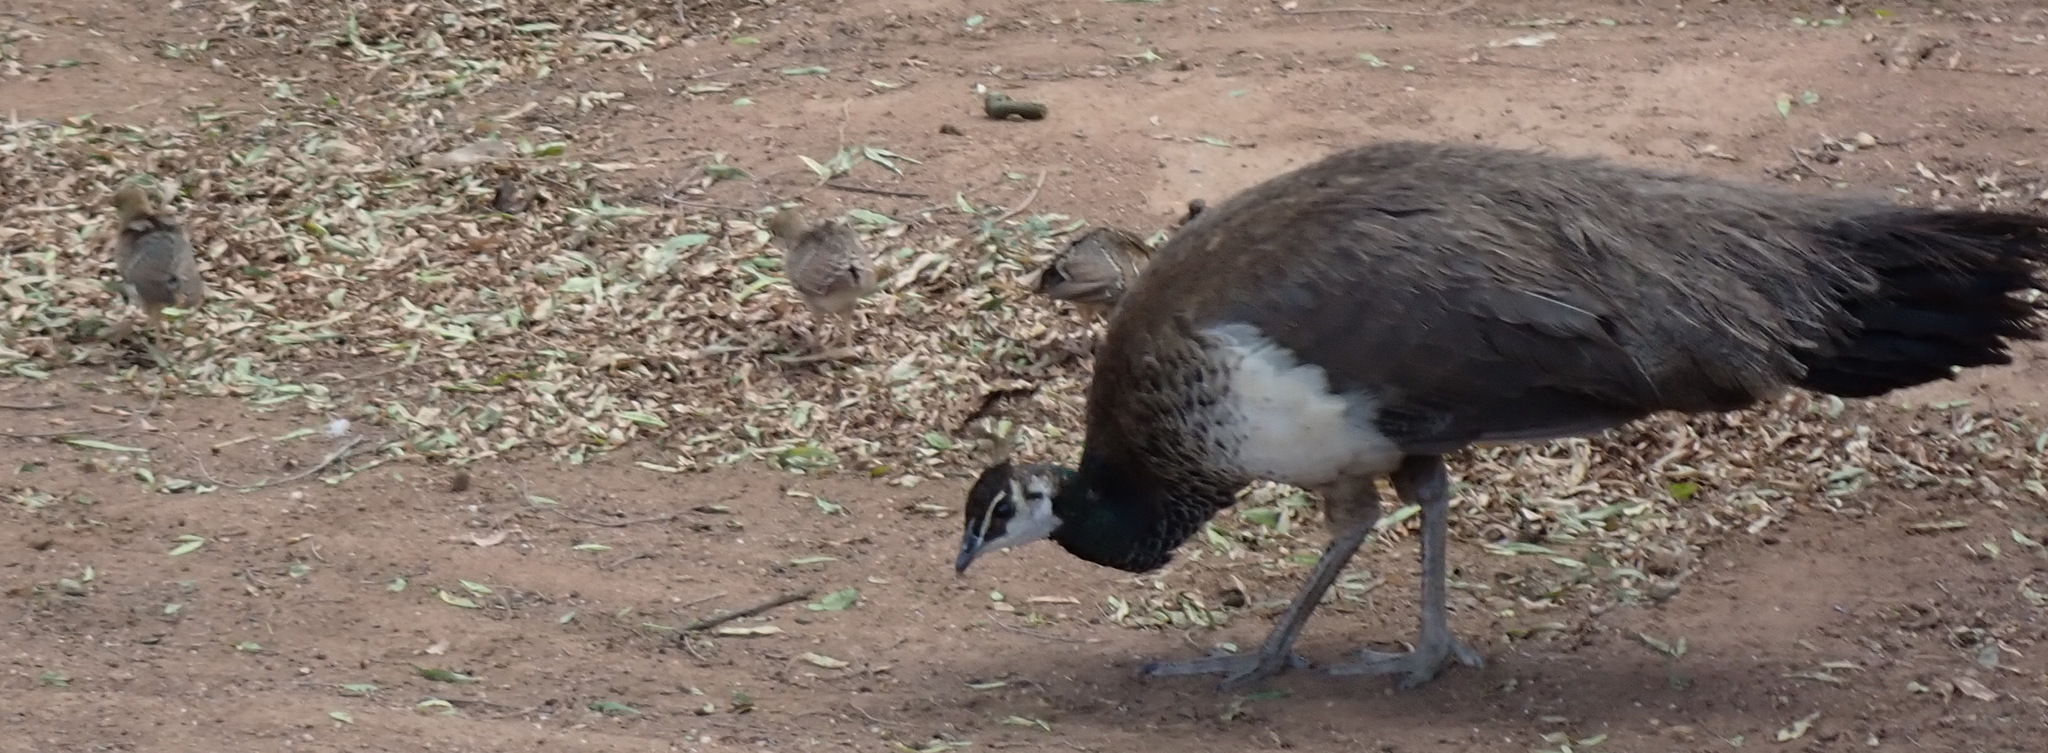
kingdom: Animalia
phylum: Chordata
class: Aves
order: Galliformes
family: Phasianidae
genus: Pavo
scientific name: Pavo cristatus
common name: Indian peafowl
